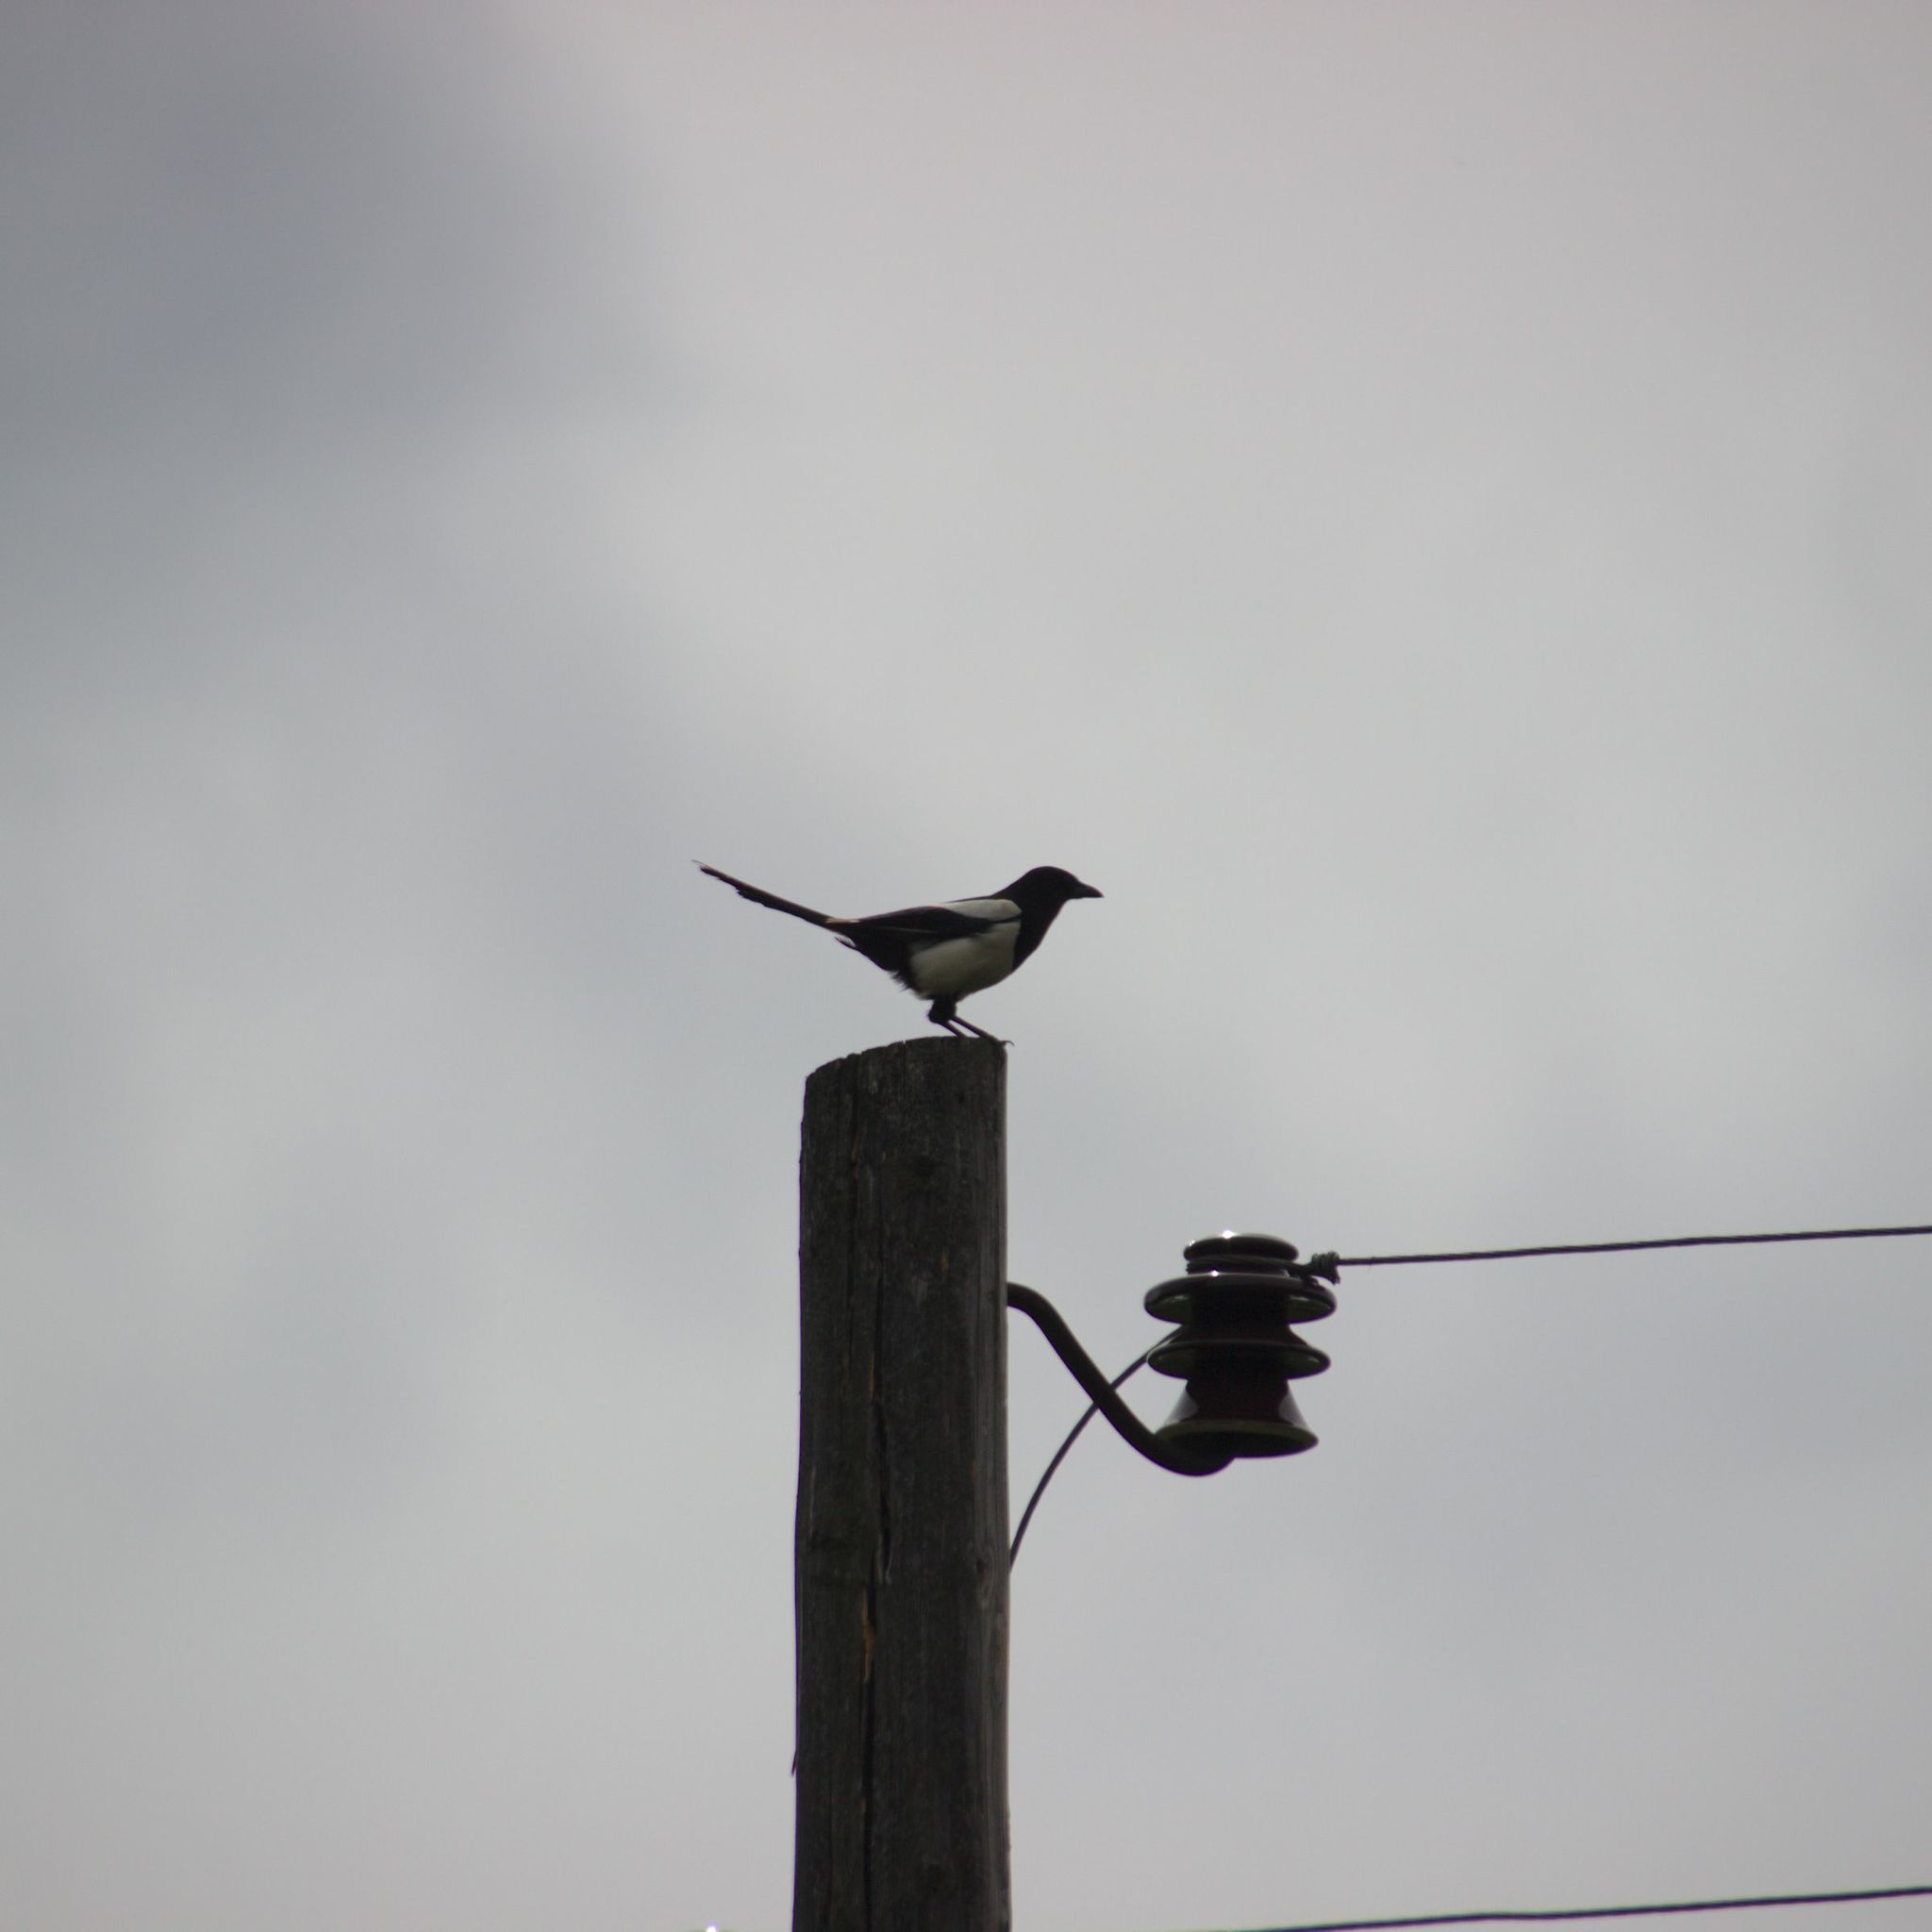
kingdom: Animalia
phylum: Chordata
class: Aves
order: Passeriformes
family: Corvidae
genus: Pica
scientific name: Pica pica
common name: Eurasian magpie
